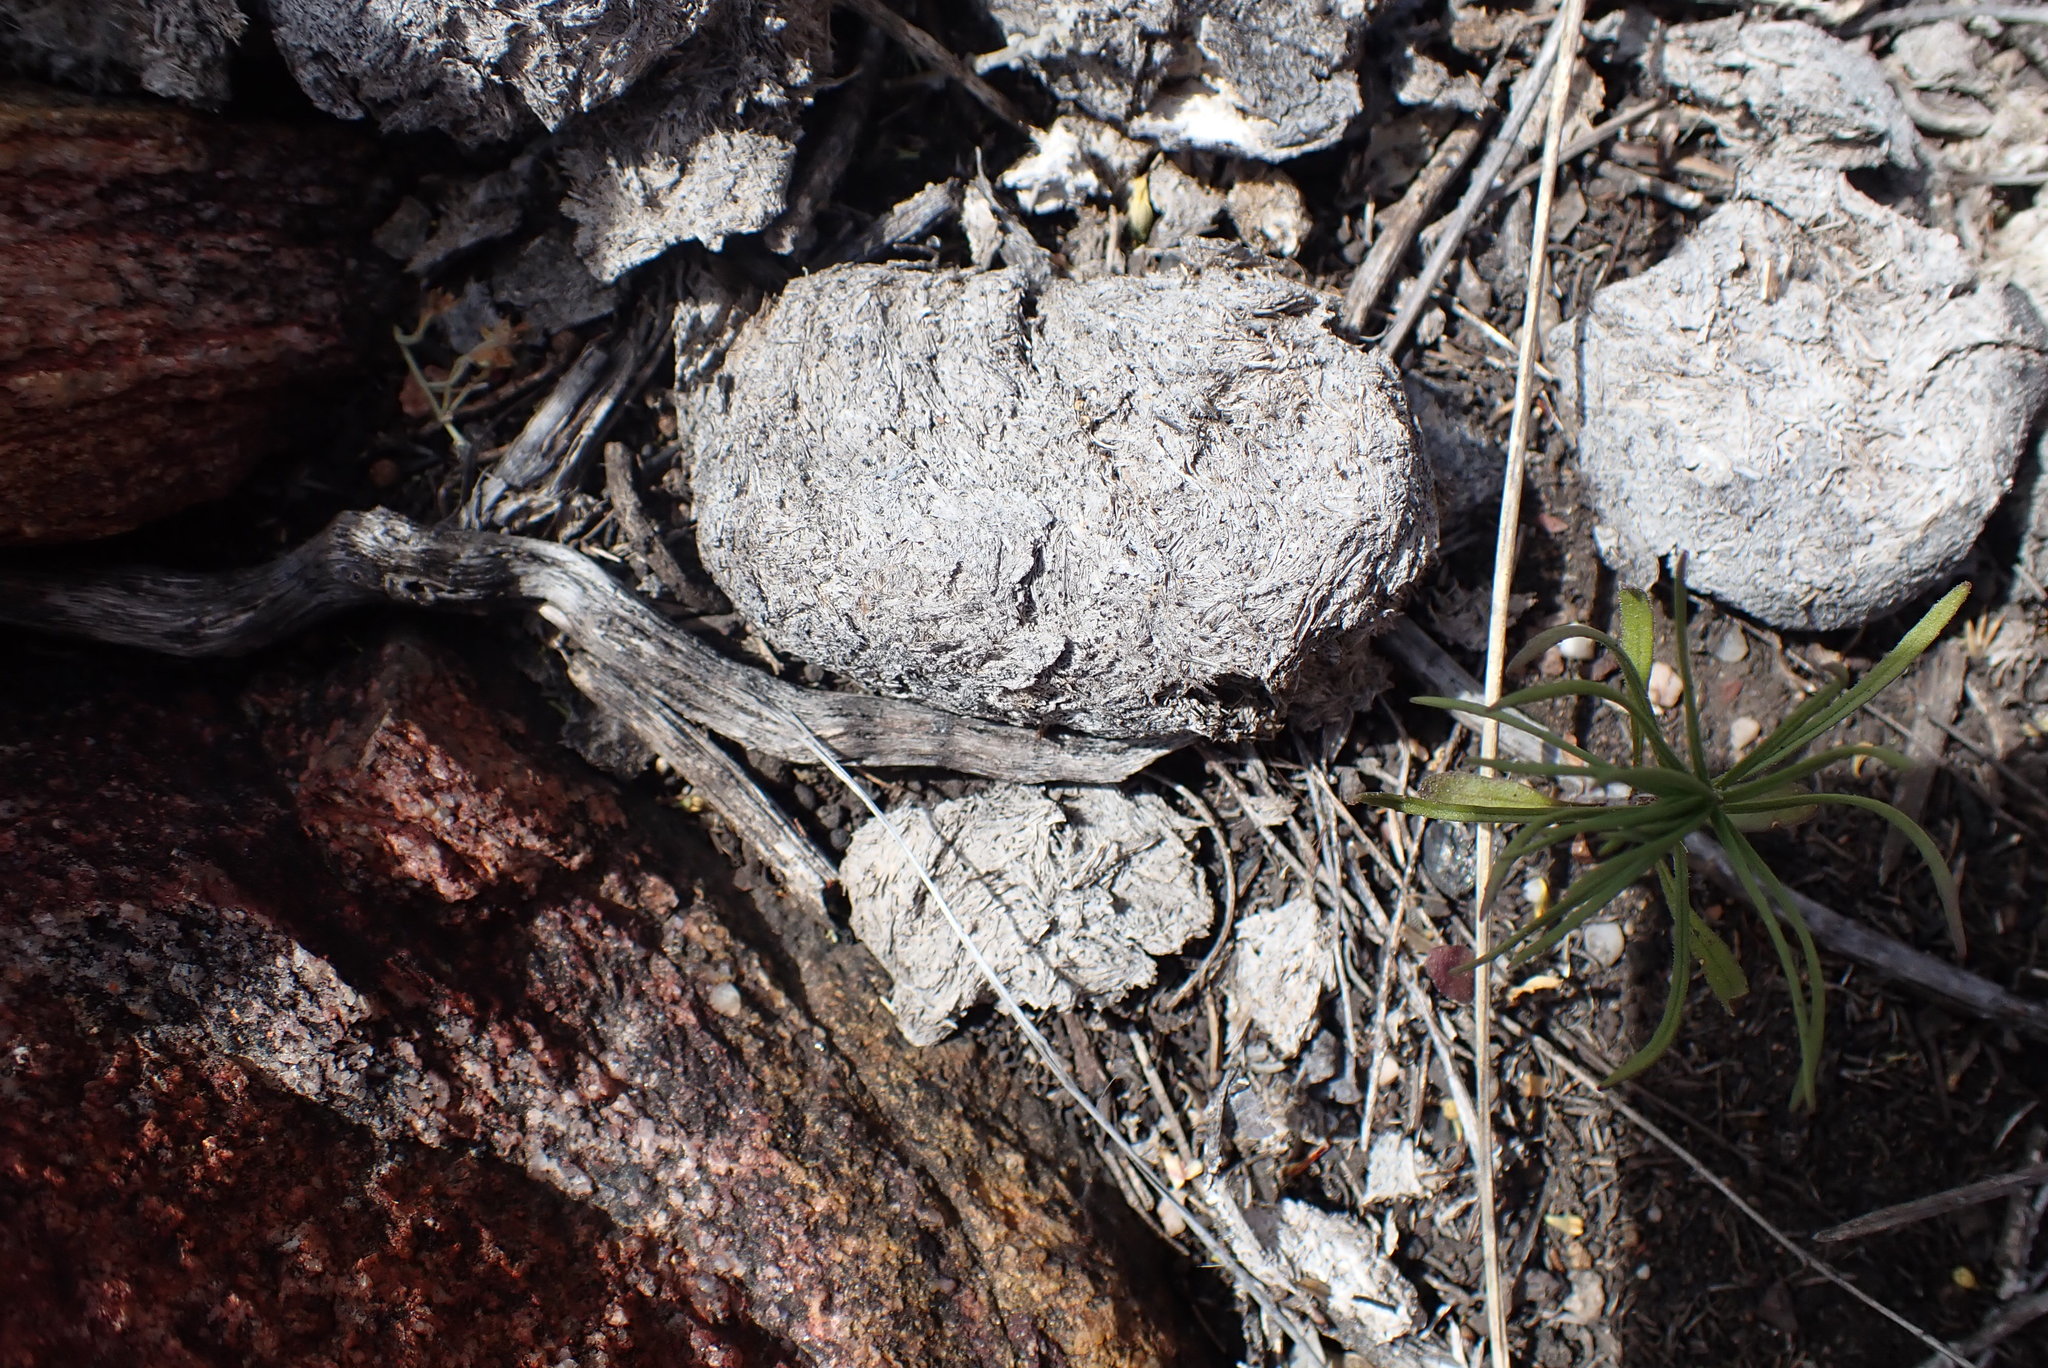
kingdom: Animalia
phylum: Chordata
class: Mammalia
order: Perissodactyla
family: Equidae
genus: Equus
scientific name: Equus quagga
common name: Plains zebra
